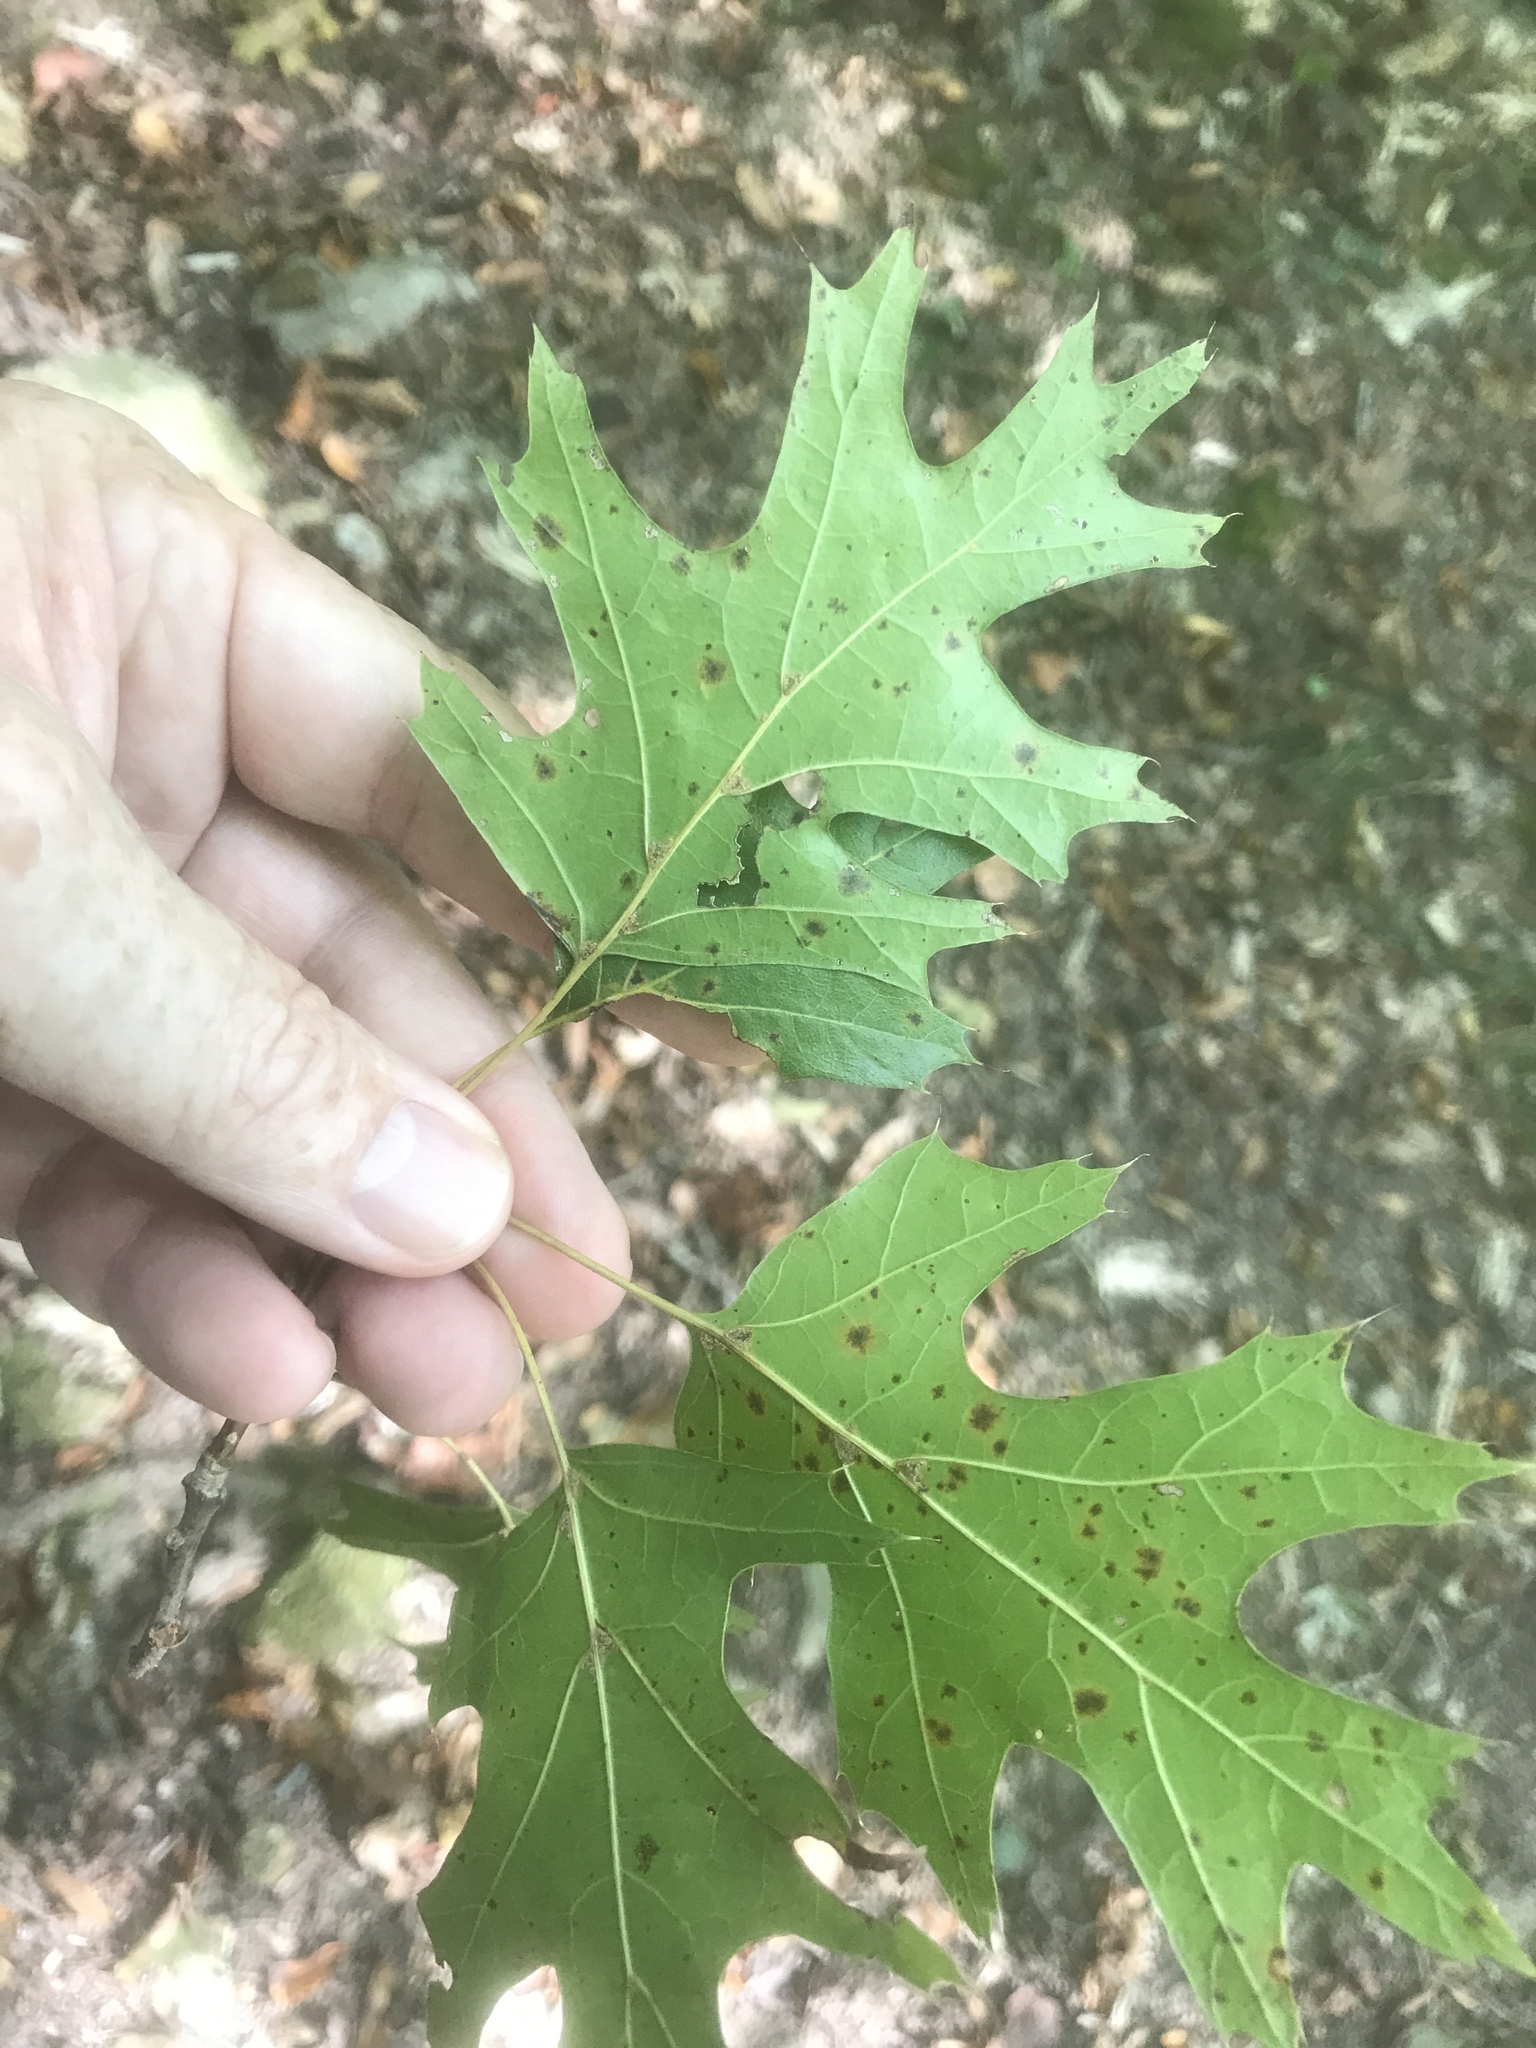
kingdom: Plantae
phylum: Tracheophyta
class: Magnoliopsida
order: Fagales
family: Fagaceae
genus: Quercus
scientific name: Quercus shumardii
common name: Shumard oak
